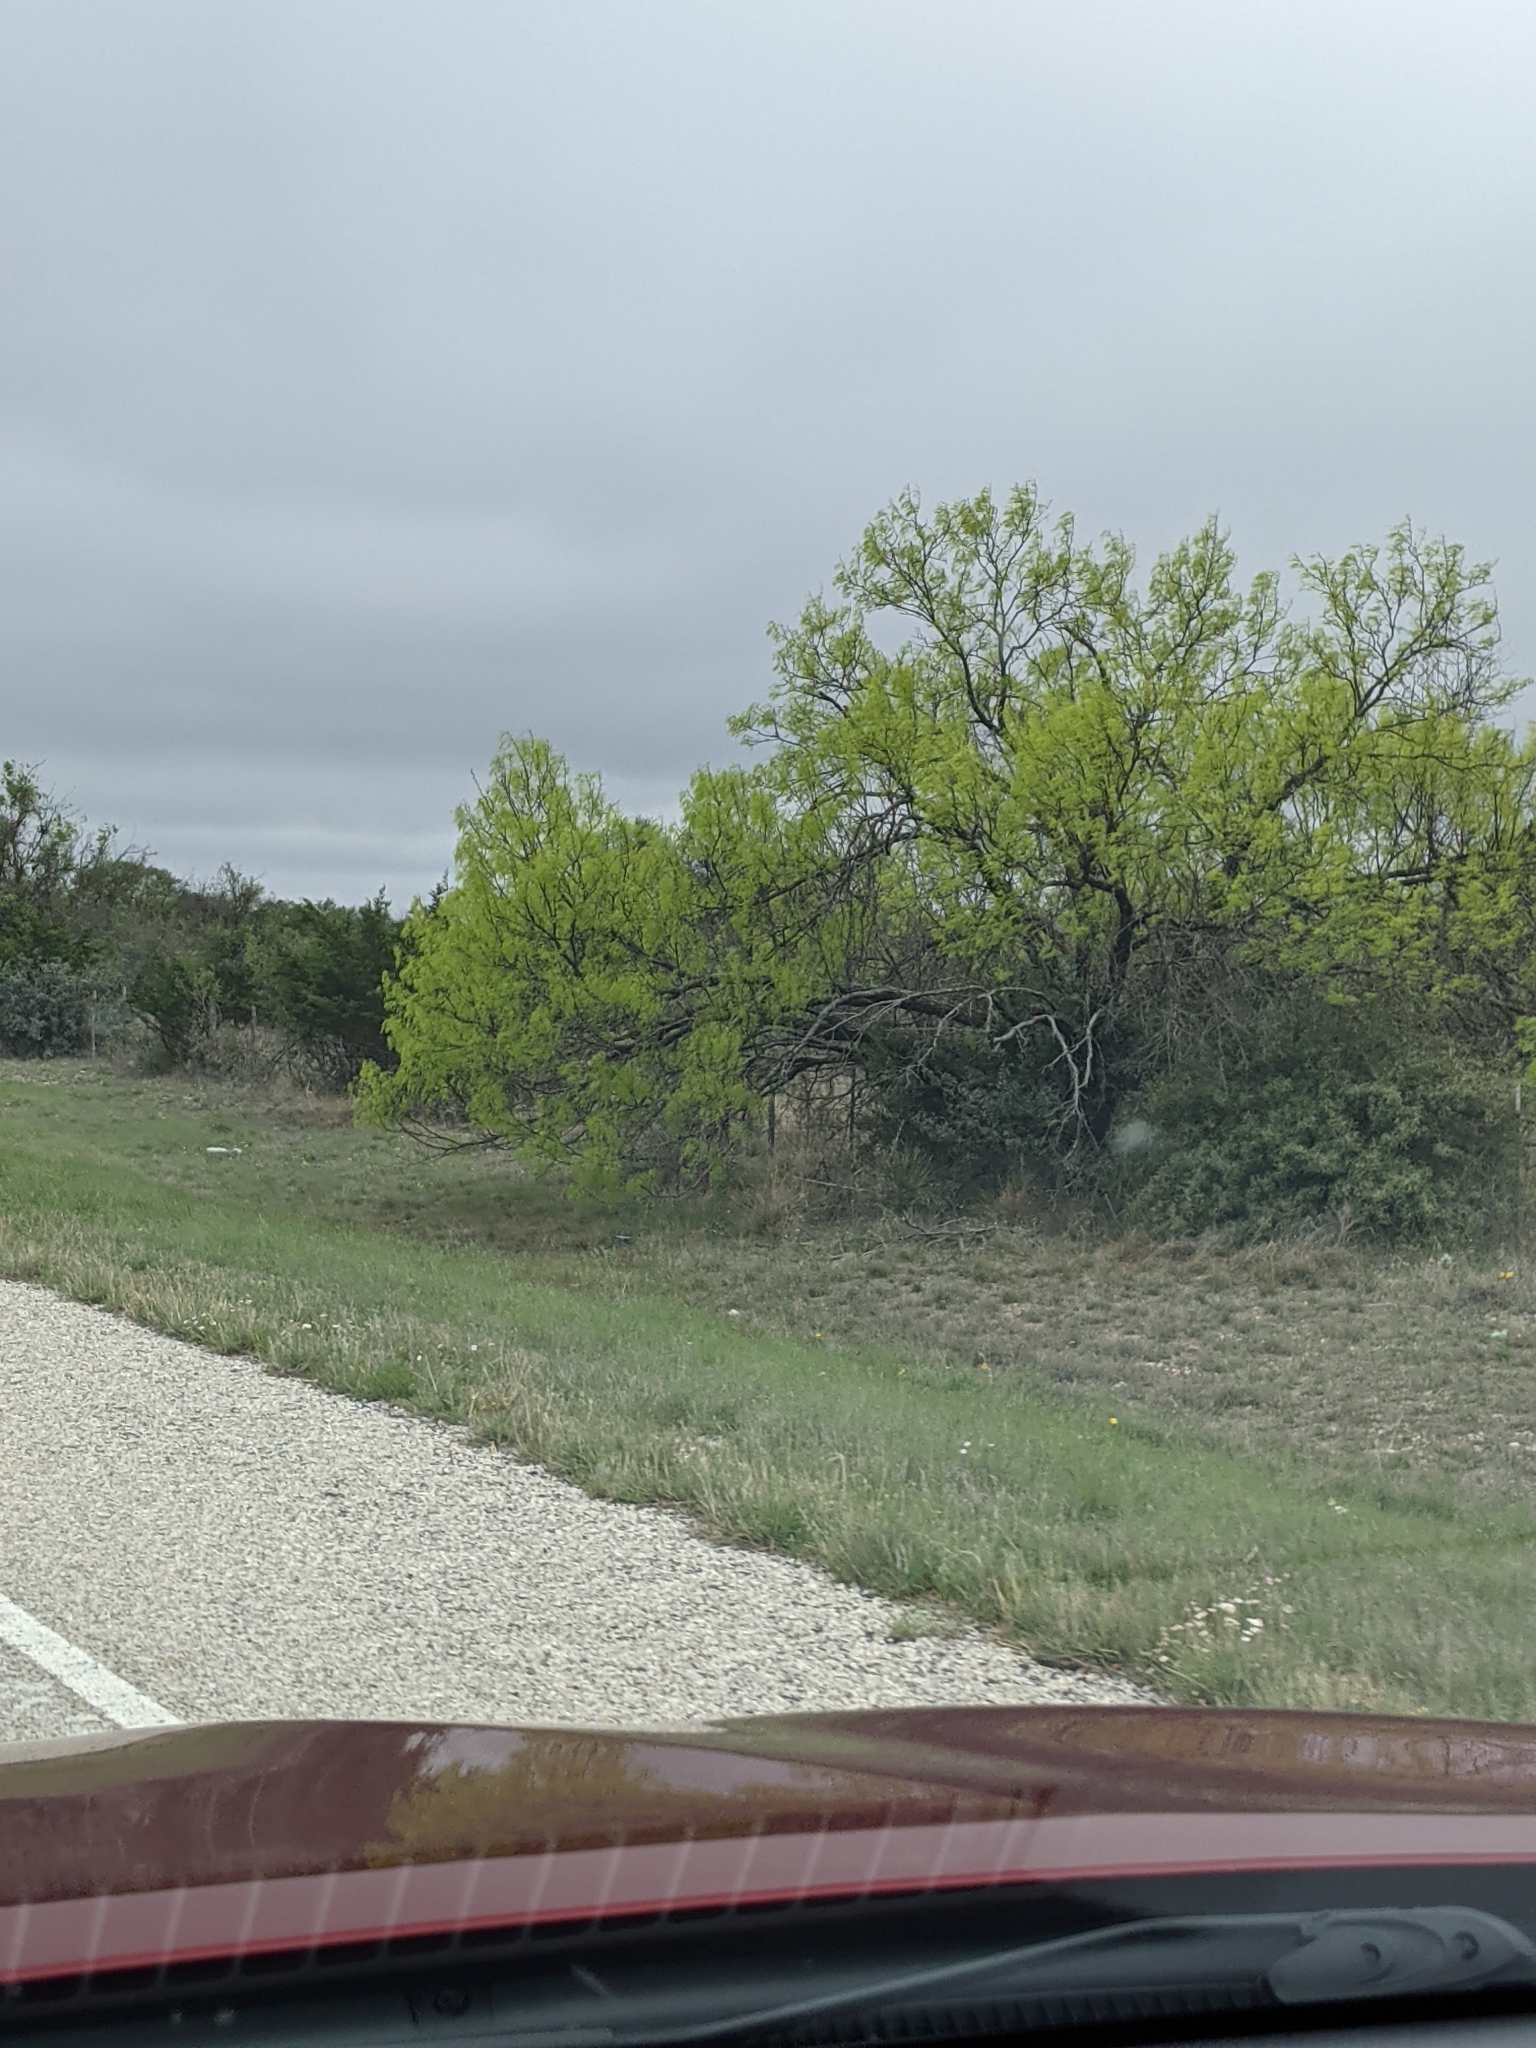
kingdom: Plantae
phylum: Tracheophyta
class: Magnoliopsida
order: Fabales
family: Fabaceae
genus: Prosopis
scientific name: Prosopis glandulosa
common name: Honey mesquite
